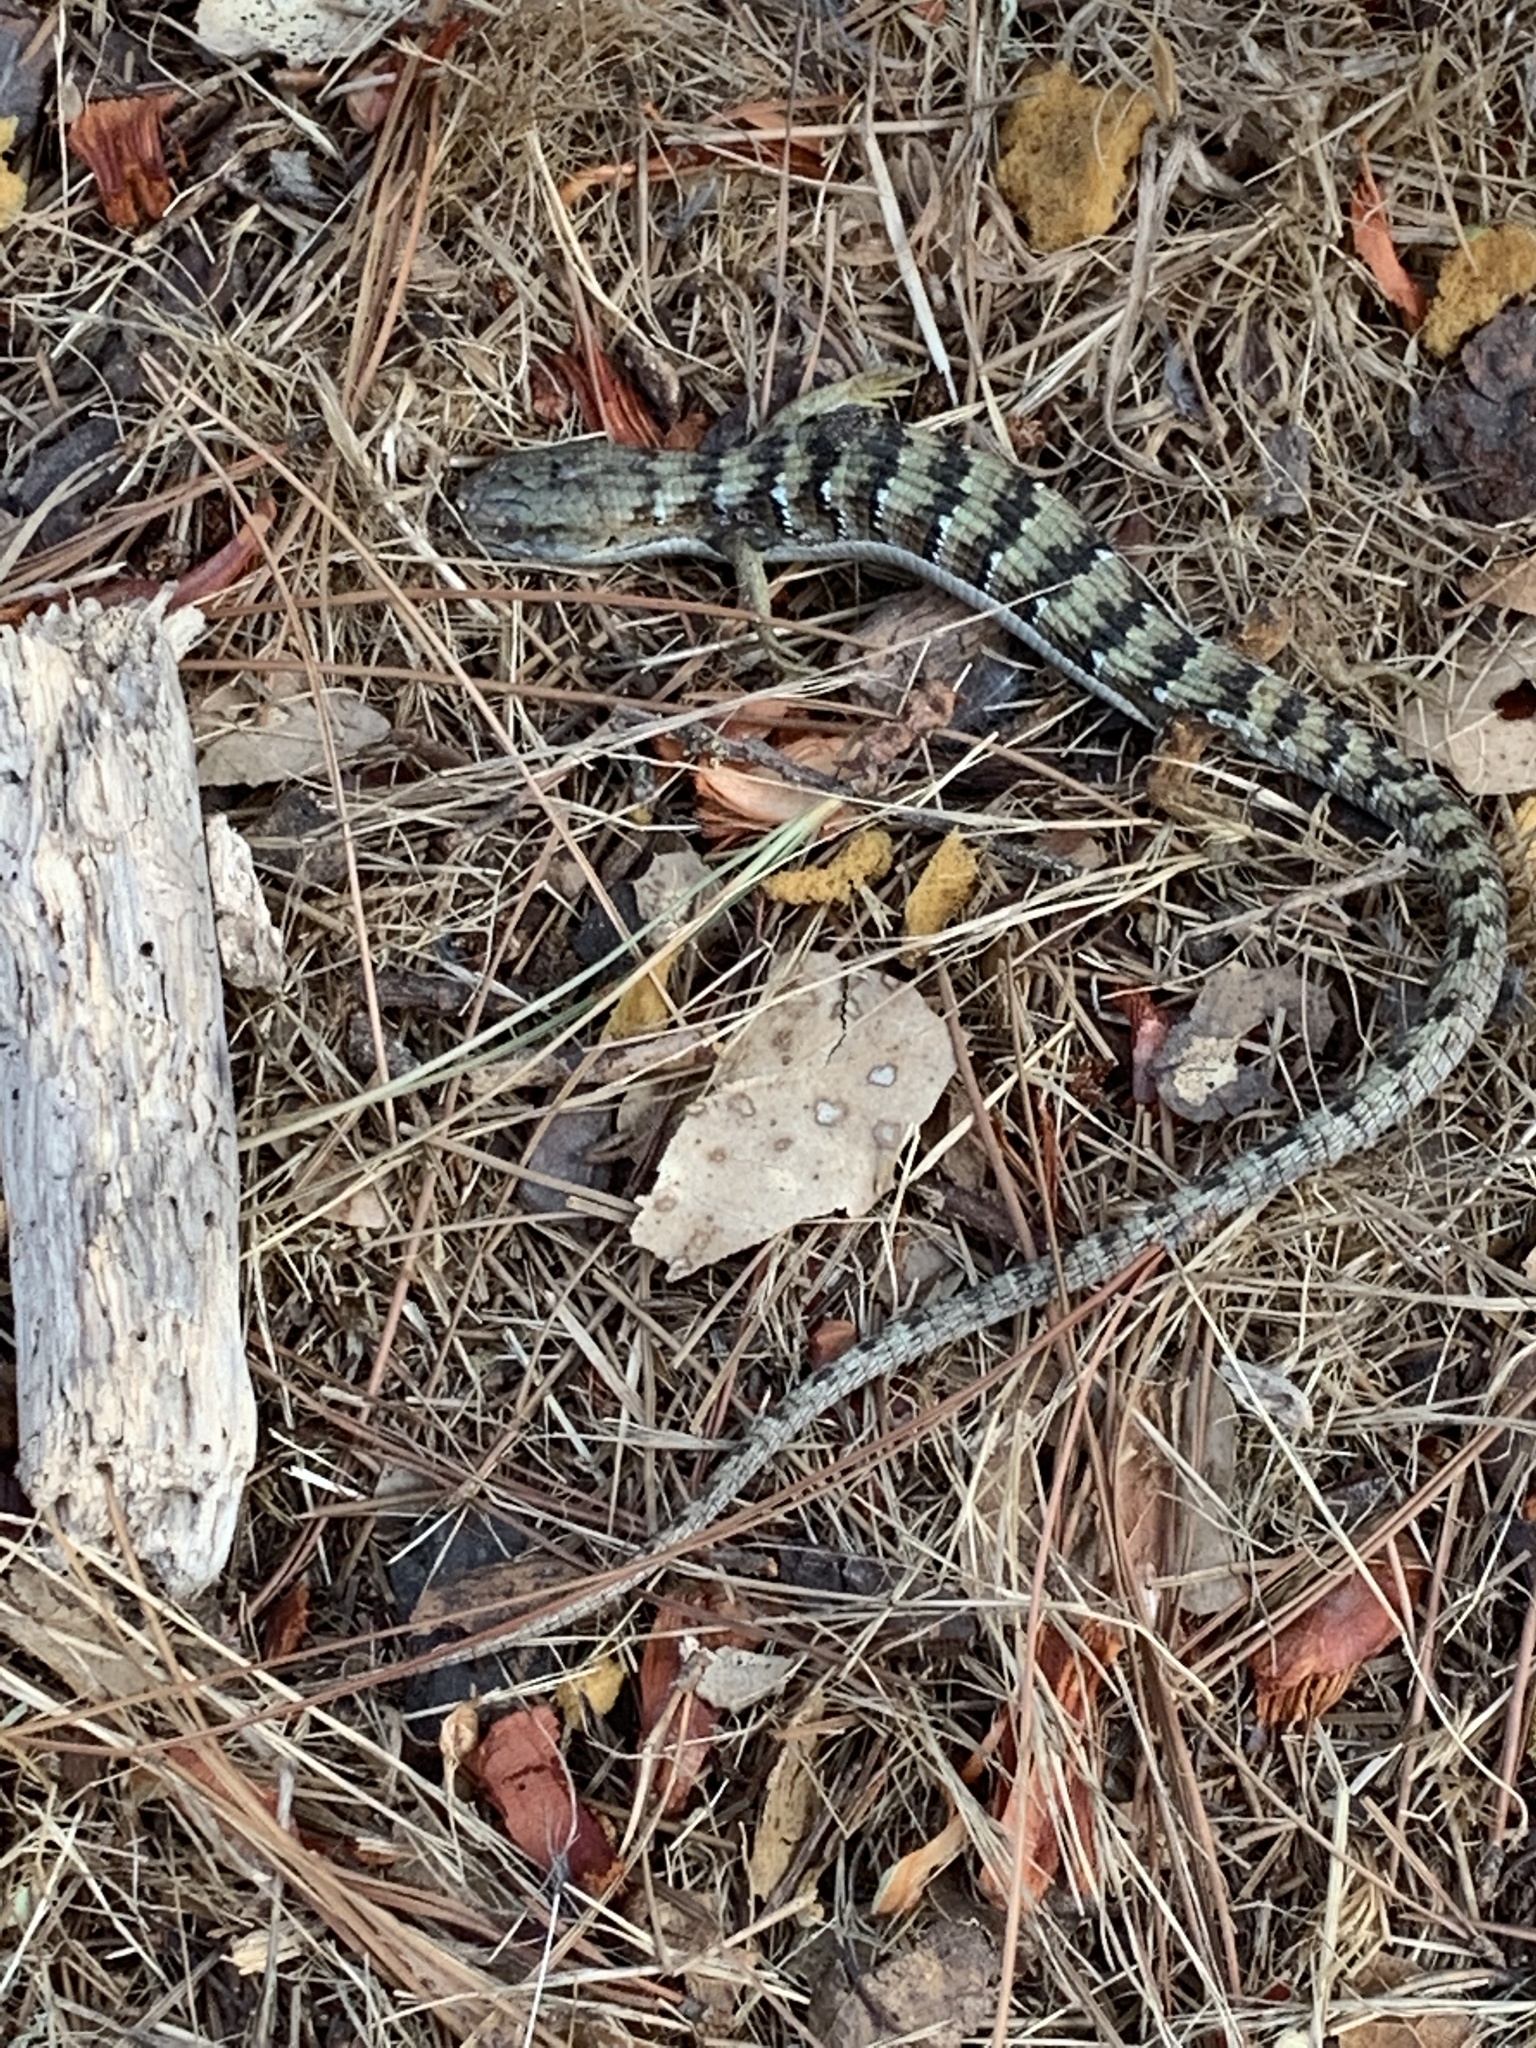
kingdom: Animalia
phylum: Chordata
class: Squamata
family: Anguidae
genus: Elgaria
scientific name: Elgaria multicarinata
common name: Southern alligator lizard
